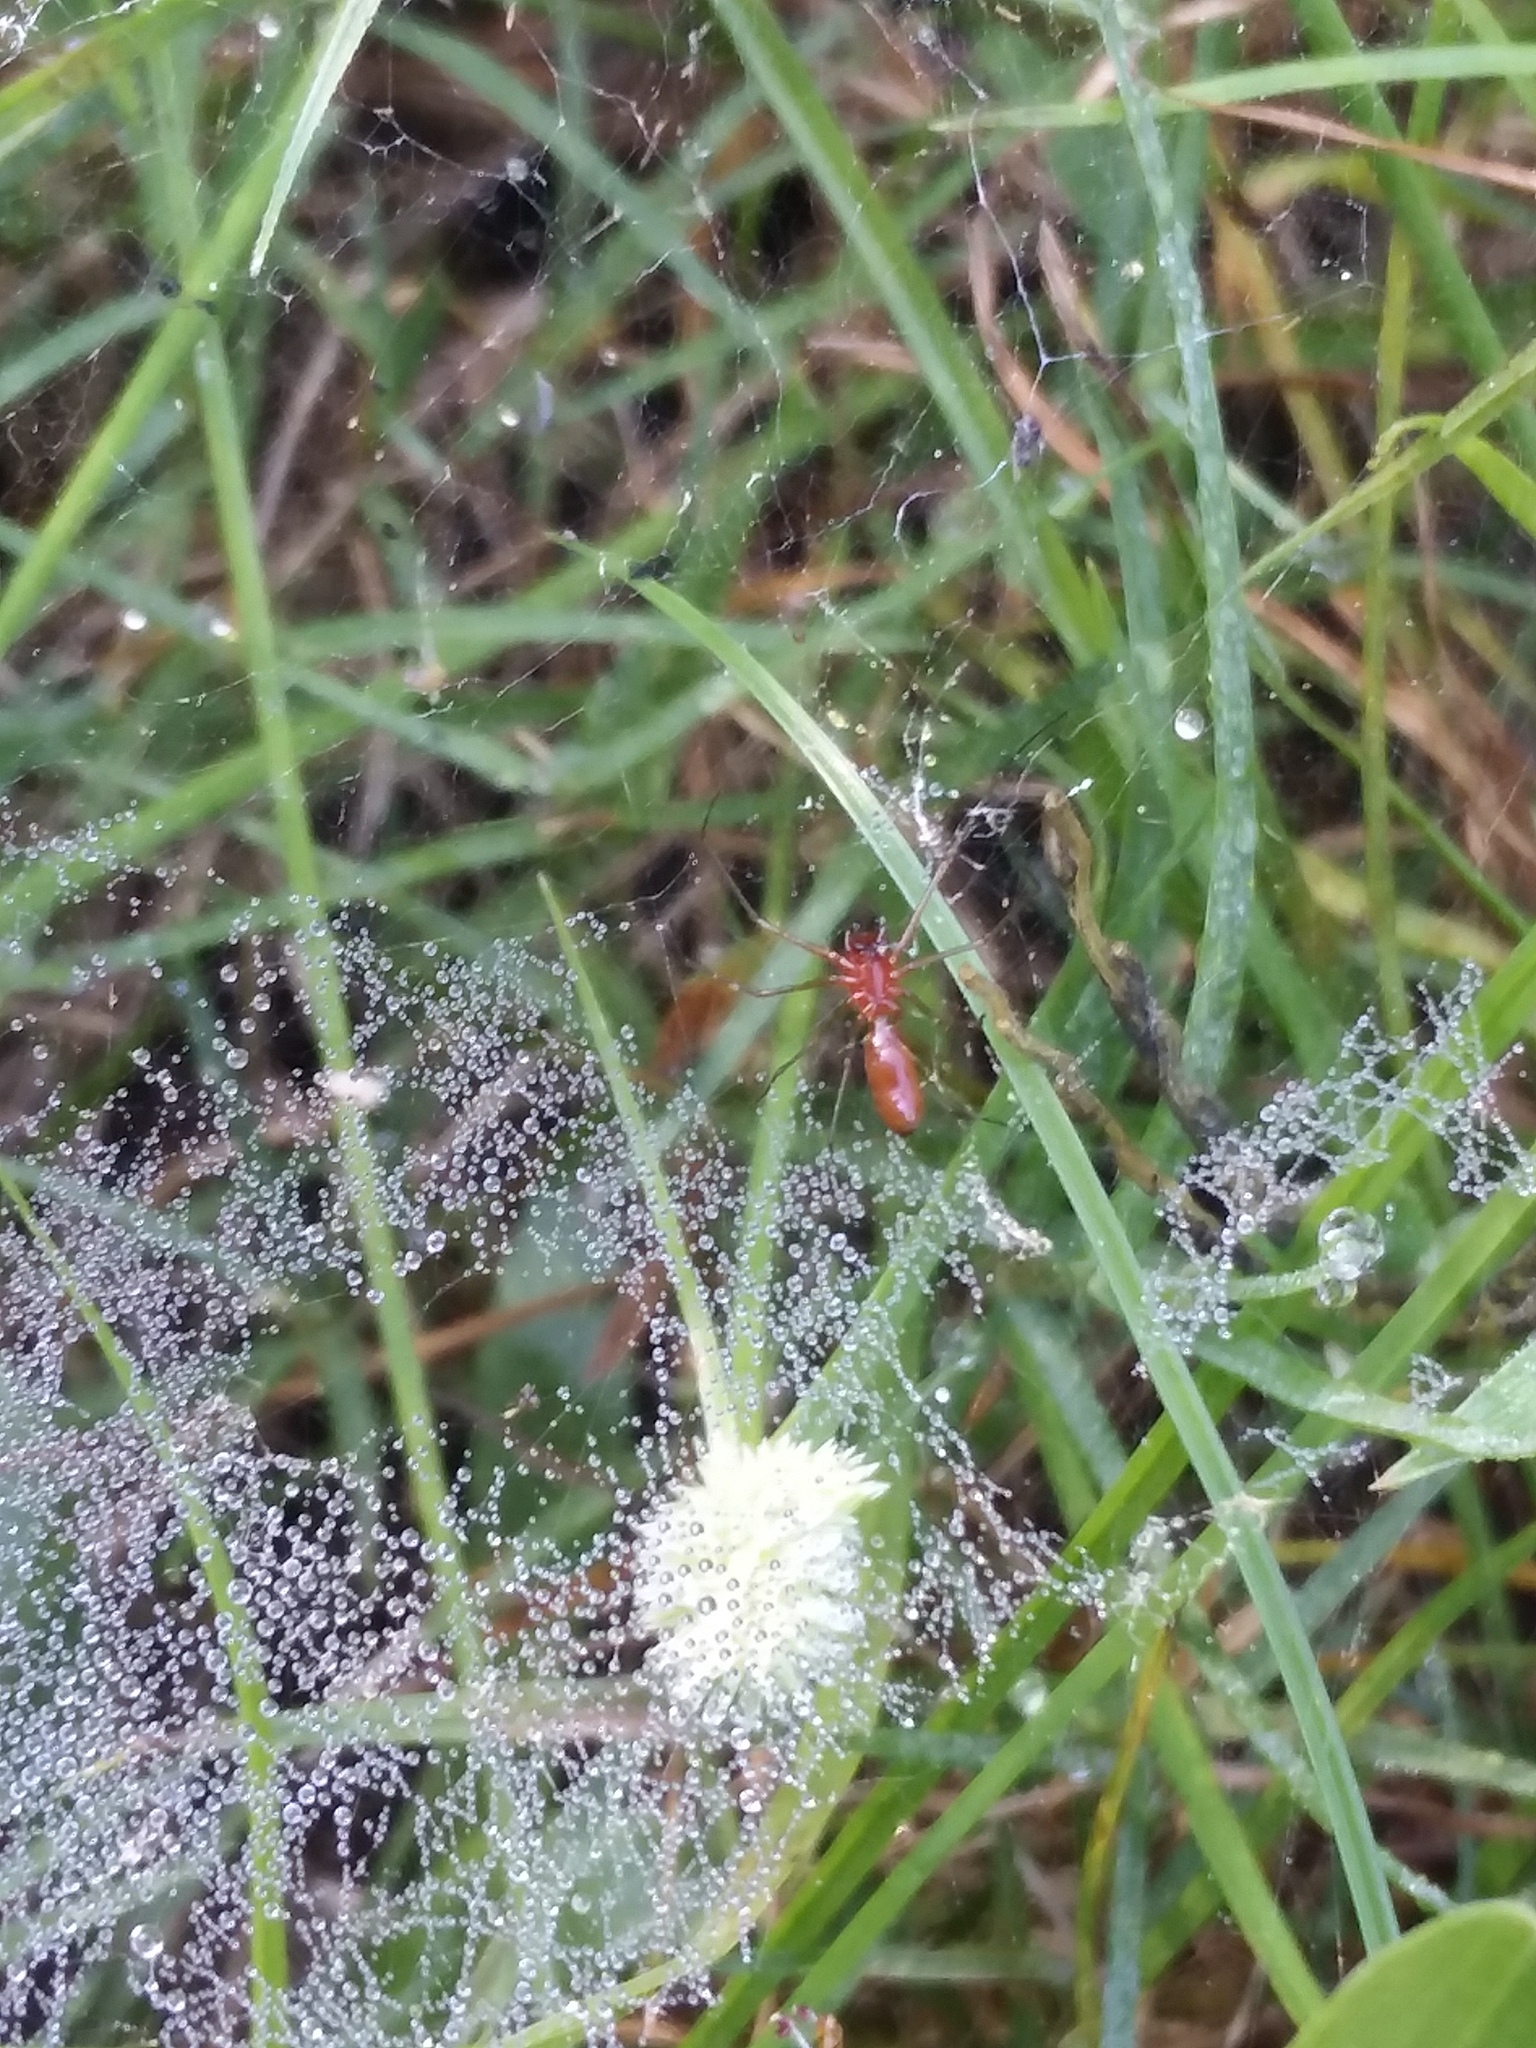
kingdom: Animalia
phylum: Arthropoda
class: Arachnida
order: Araneae
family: Linyphiidae
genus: Florinda
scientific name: Florinda coccinea
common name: Black-tailed red sheetweaver
